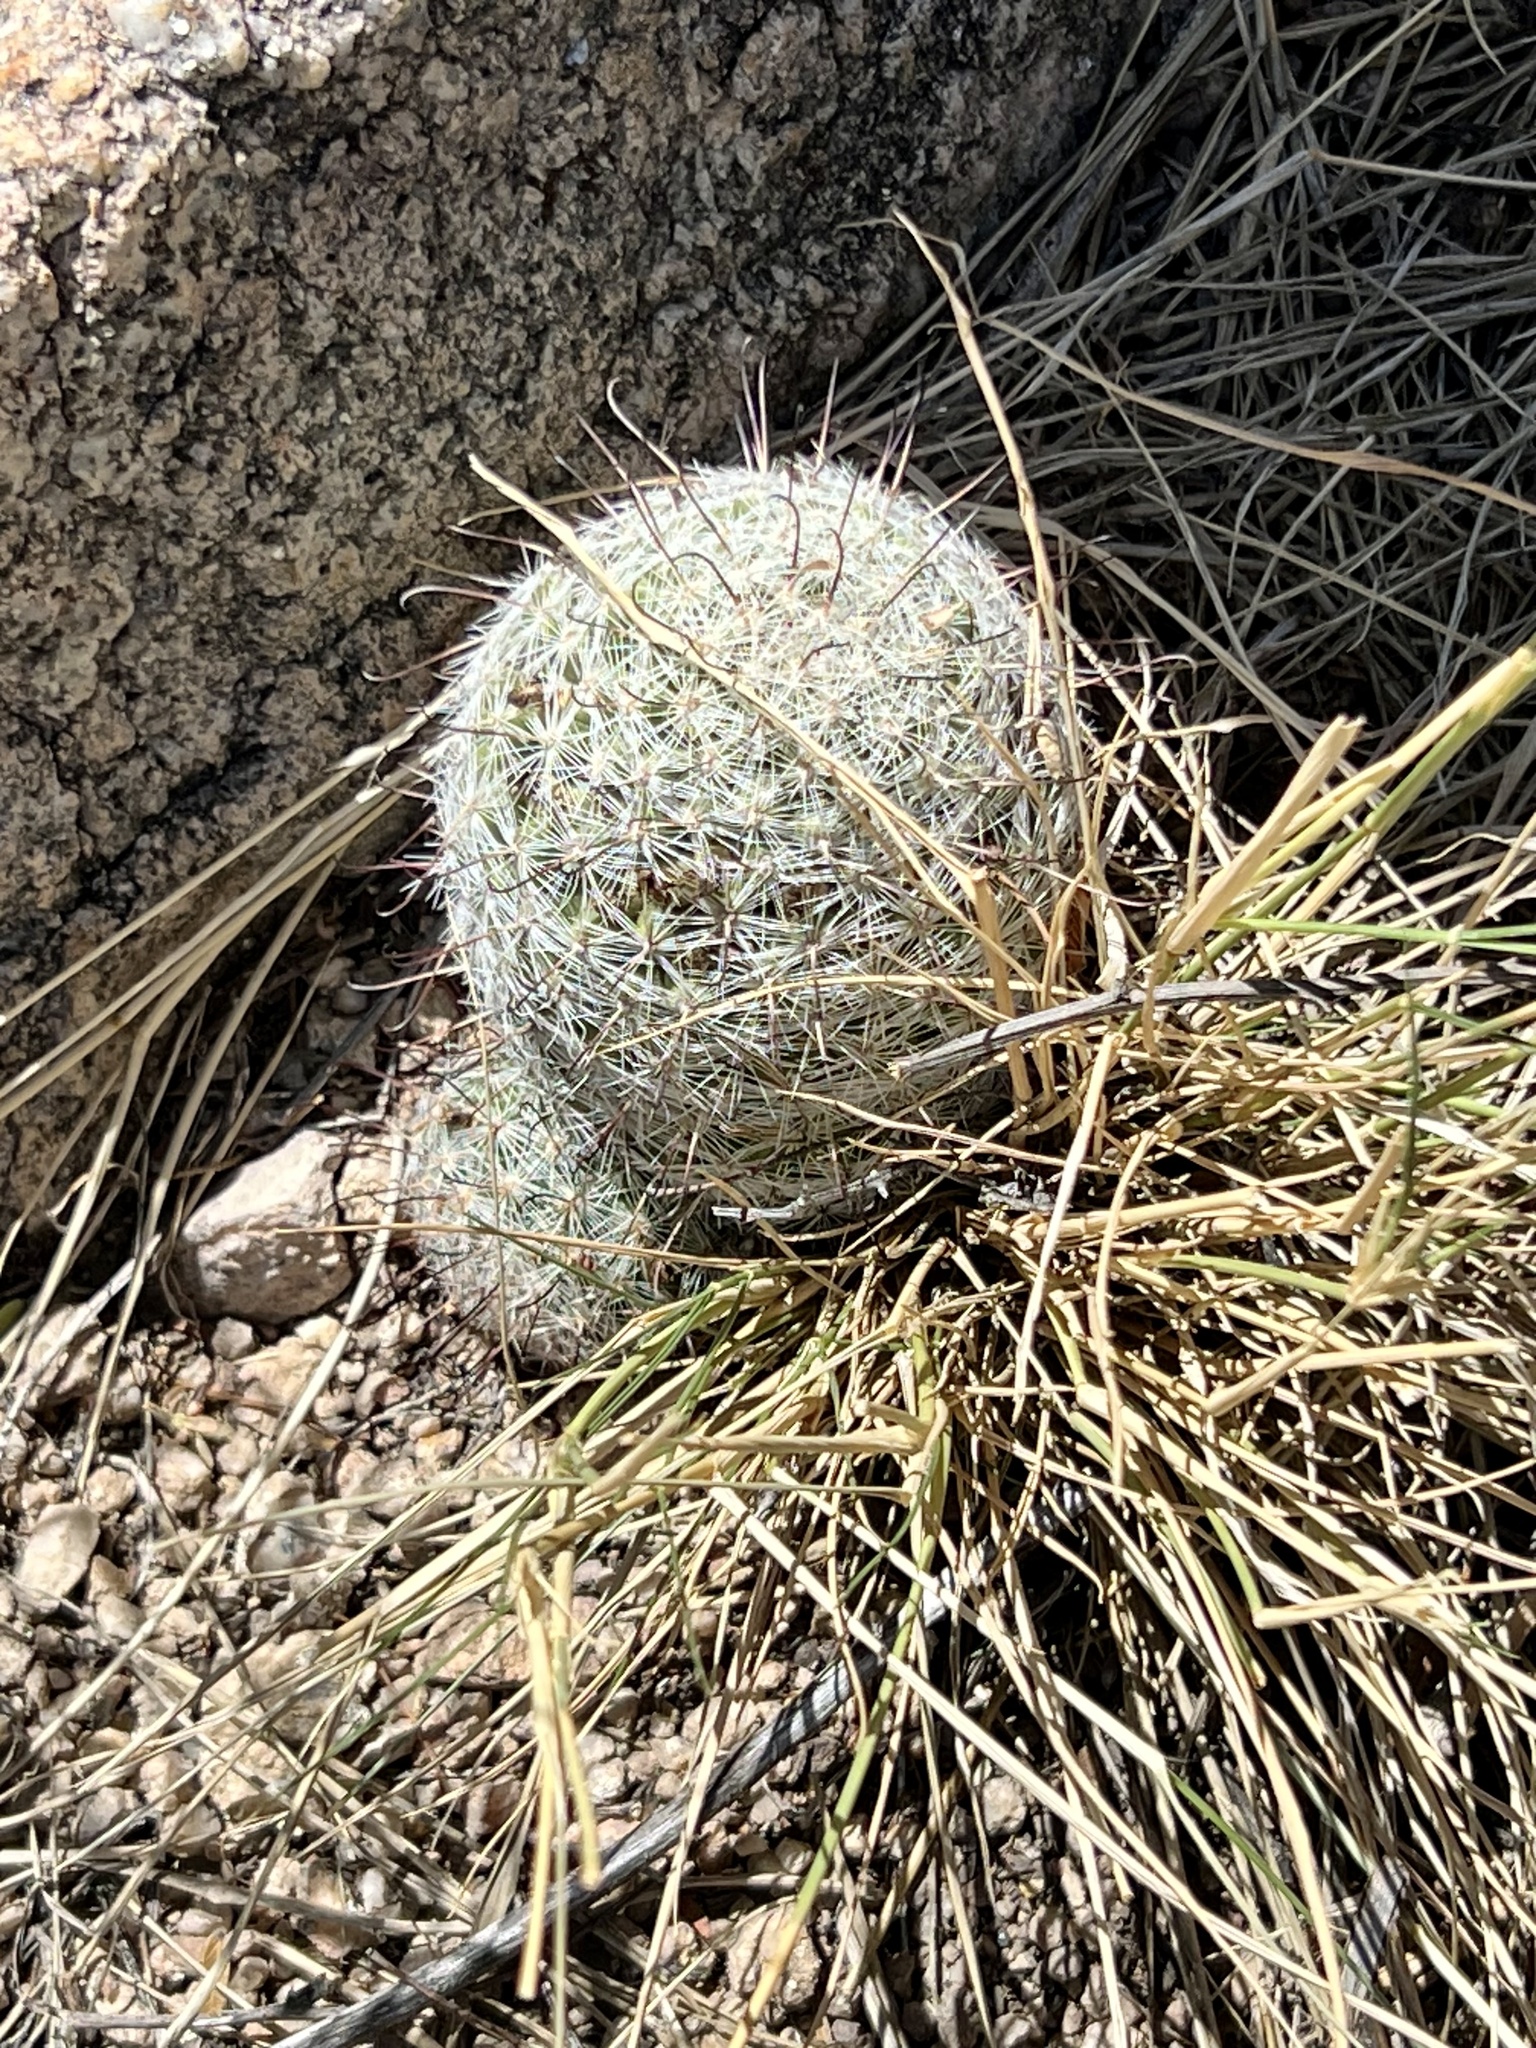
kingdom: Plantae
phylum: Tracheophyta
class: Magnoliopsida
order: Caryophyllales
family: Cactaceae
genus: Cochemiea
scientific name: Cochemiea grahamii
